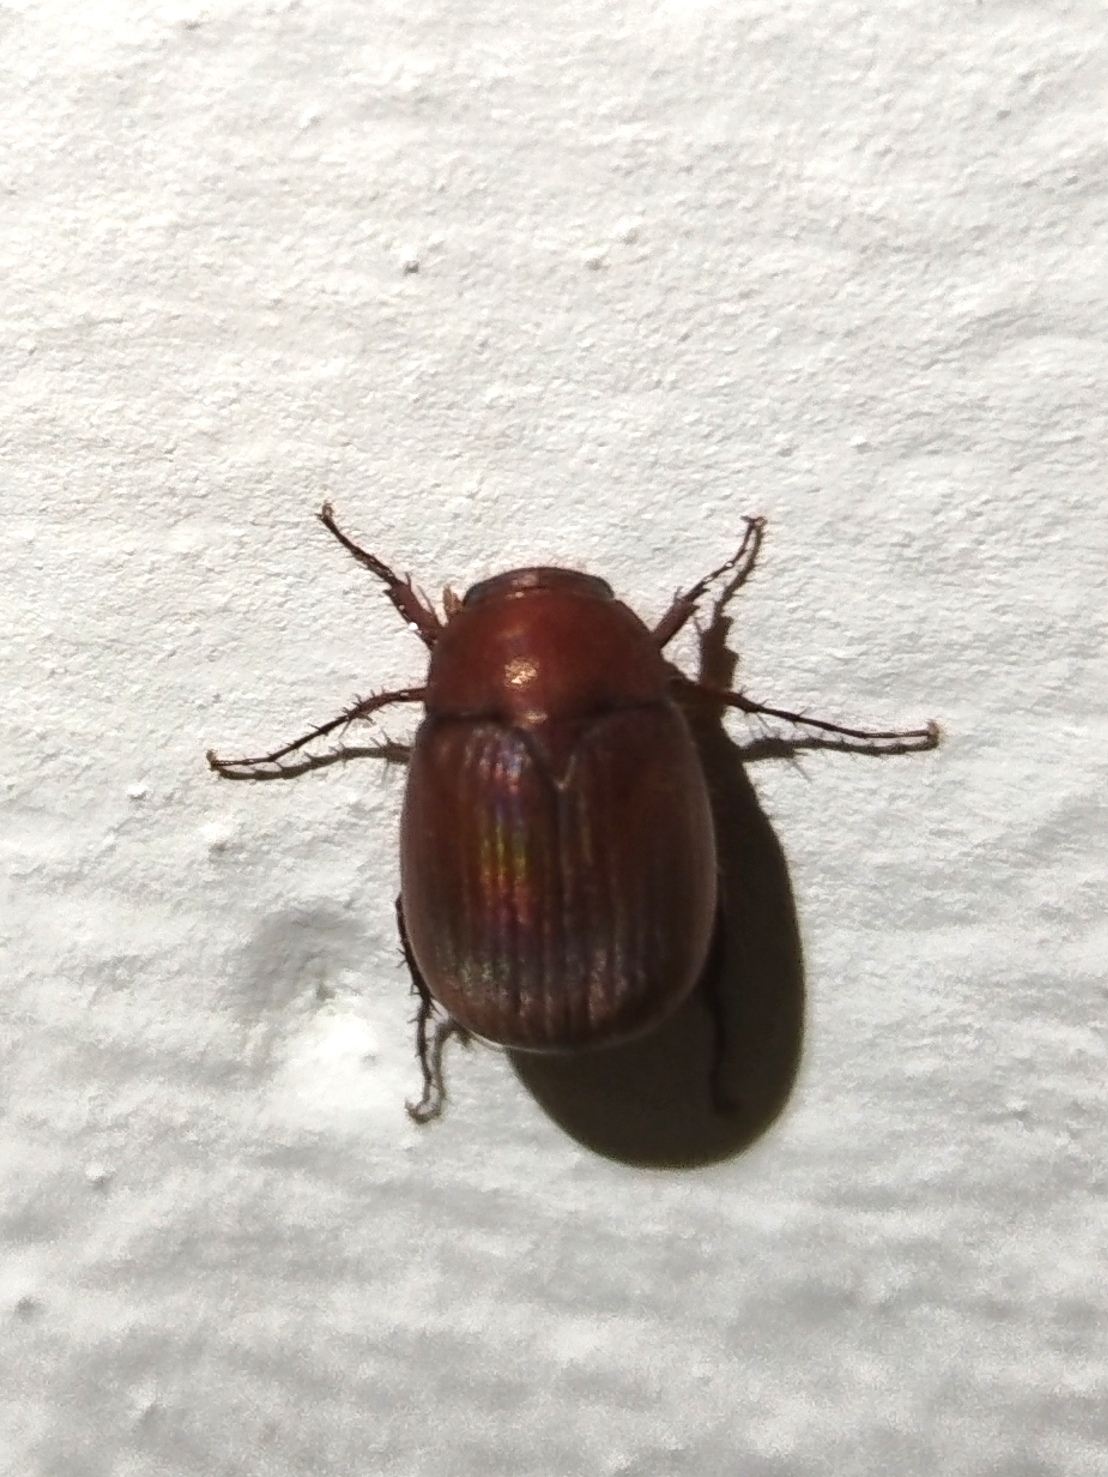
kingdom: Animalia
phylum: Arthropoda
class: Insecta
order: Coleoptera
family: Scarabaeidae
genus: Maladera
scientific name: Maladera formosae
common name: Asiatic garden beetle
